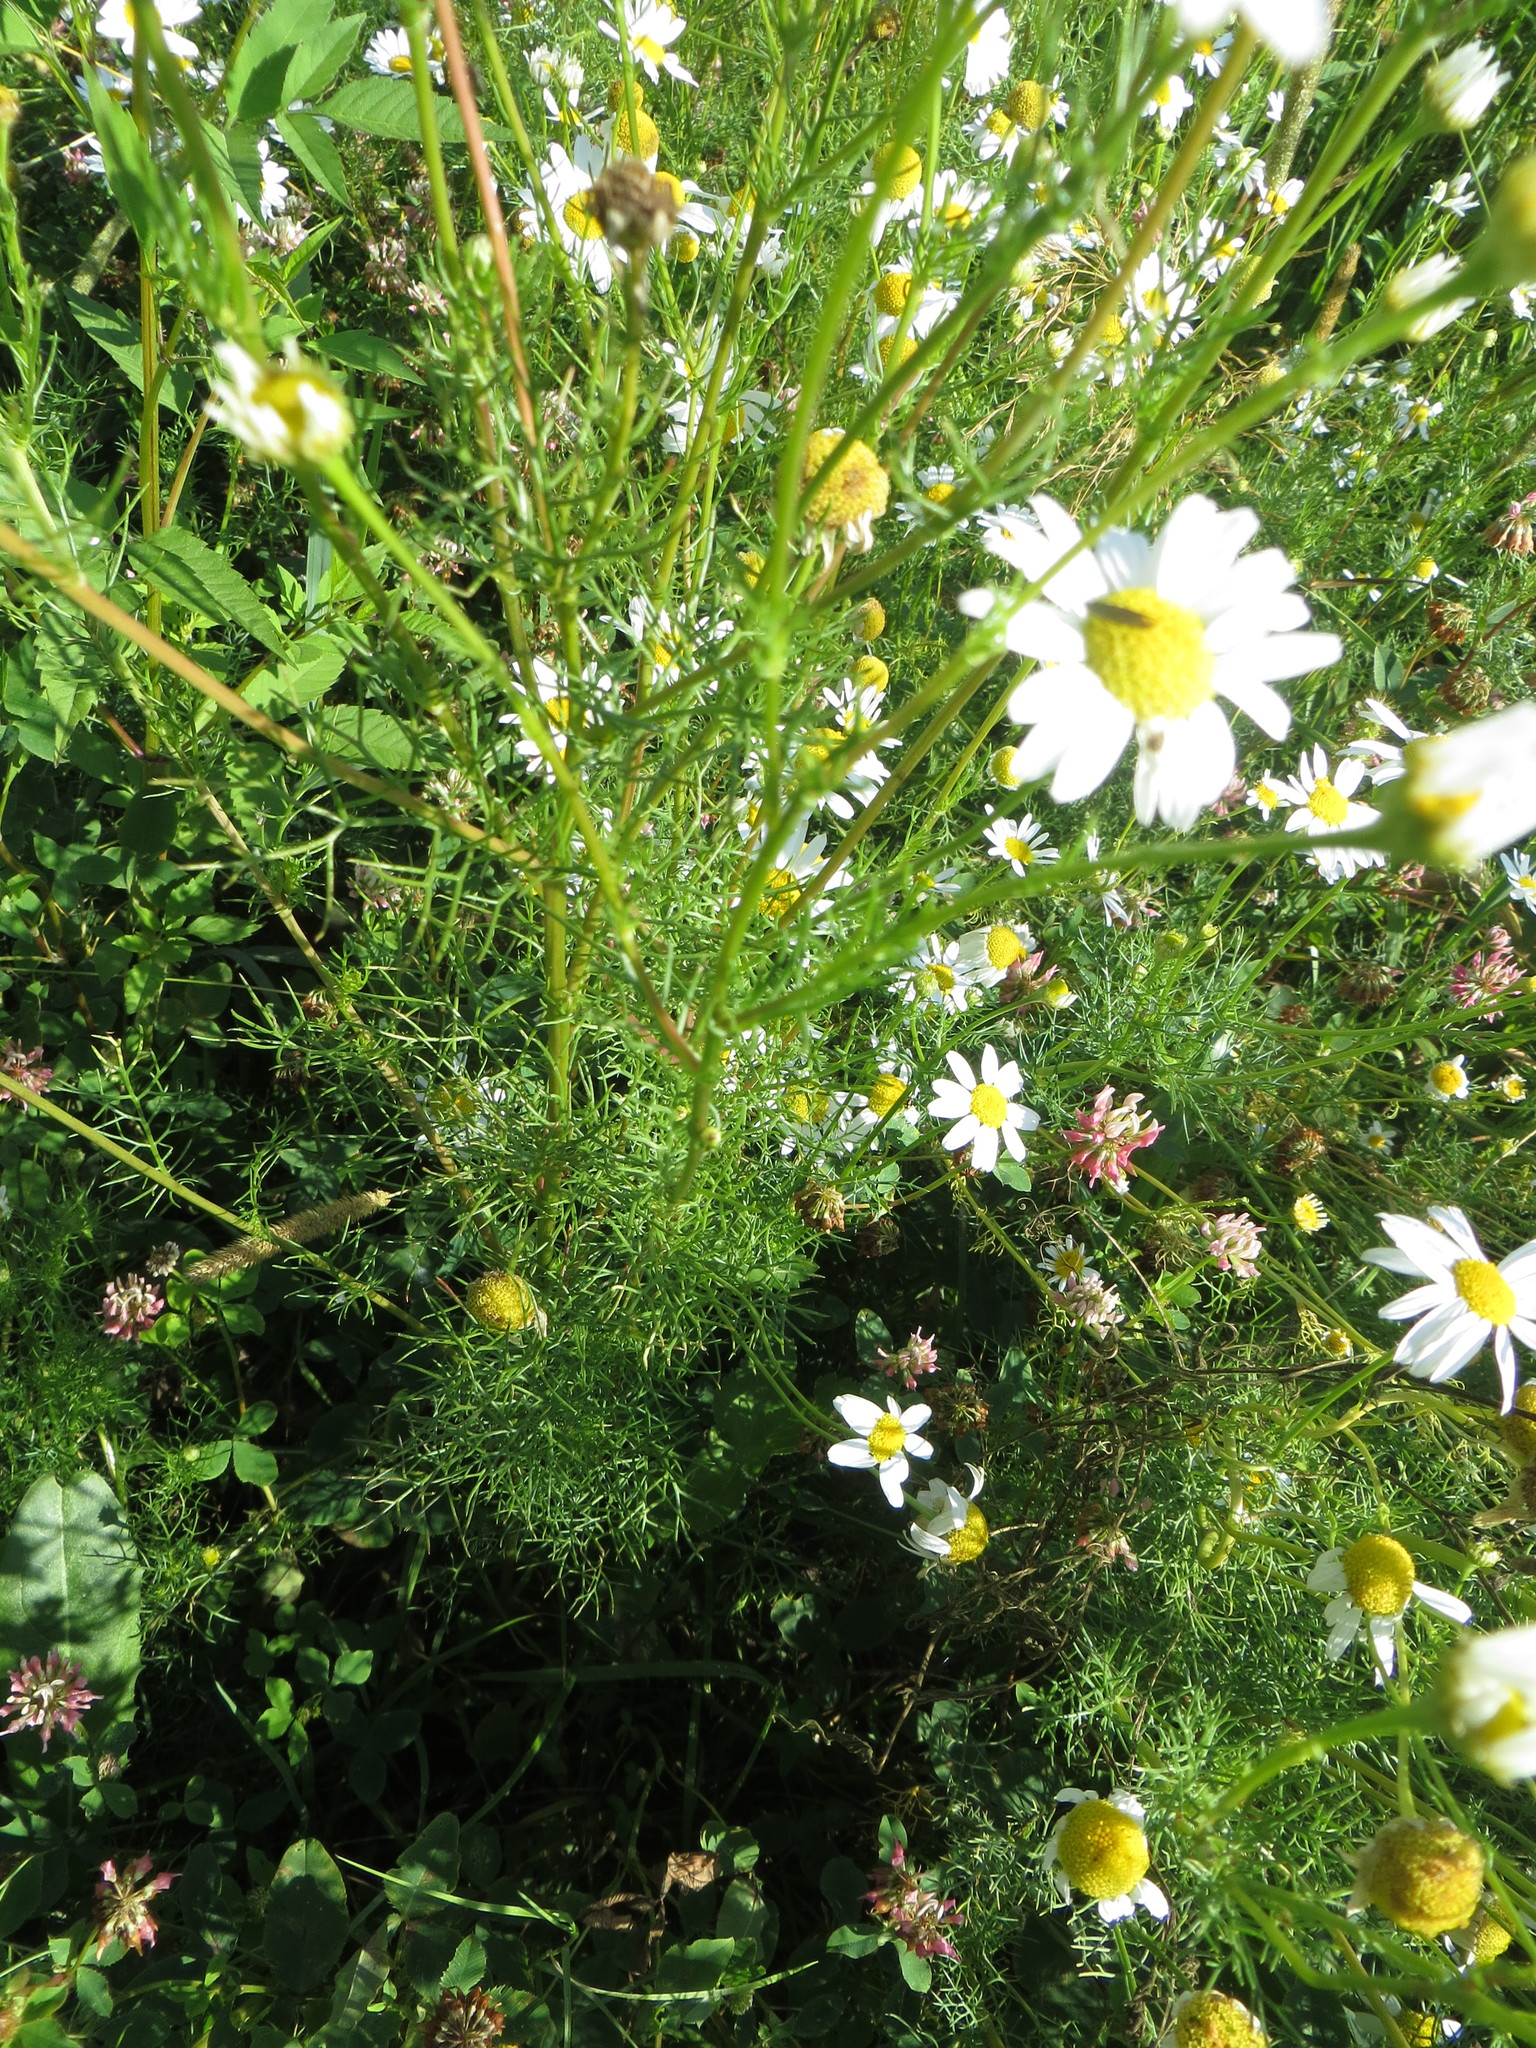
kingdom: Plantae
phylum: Tracheophyta
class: Magnoliopsida
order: Asterales
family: Asteraceae
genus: Tripleurospermum
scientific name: Tripleurospermum inodorum
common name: Scentless mayweed
